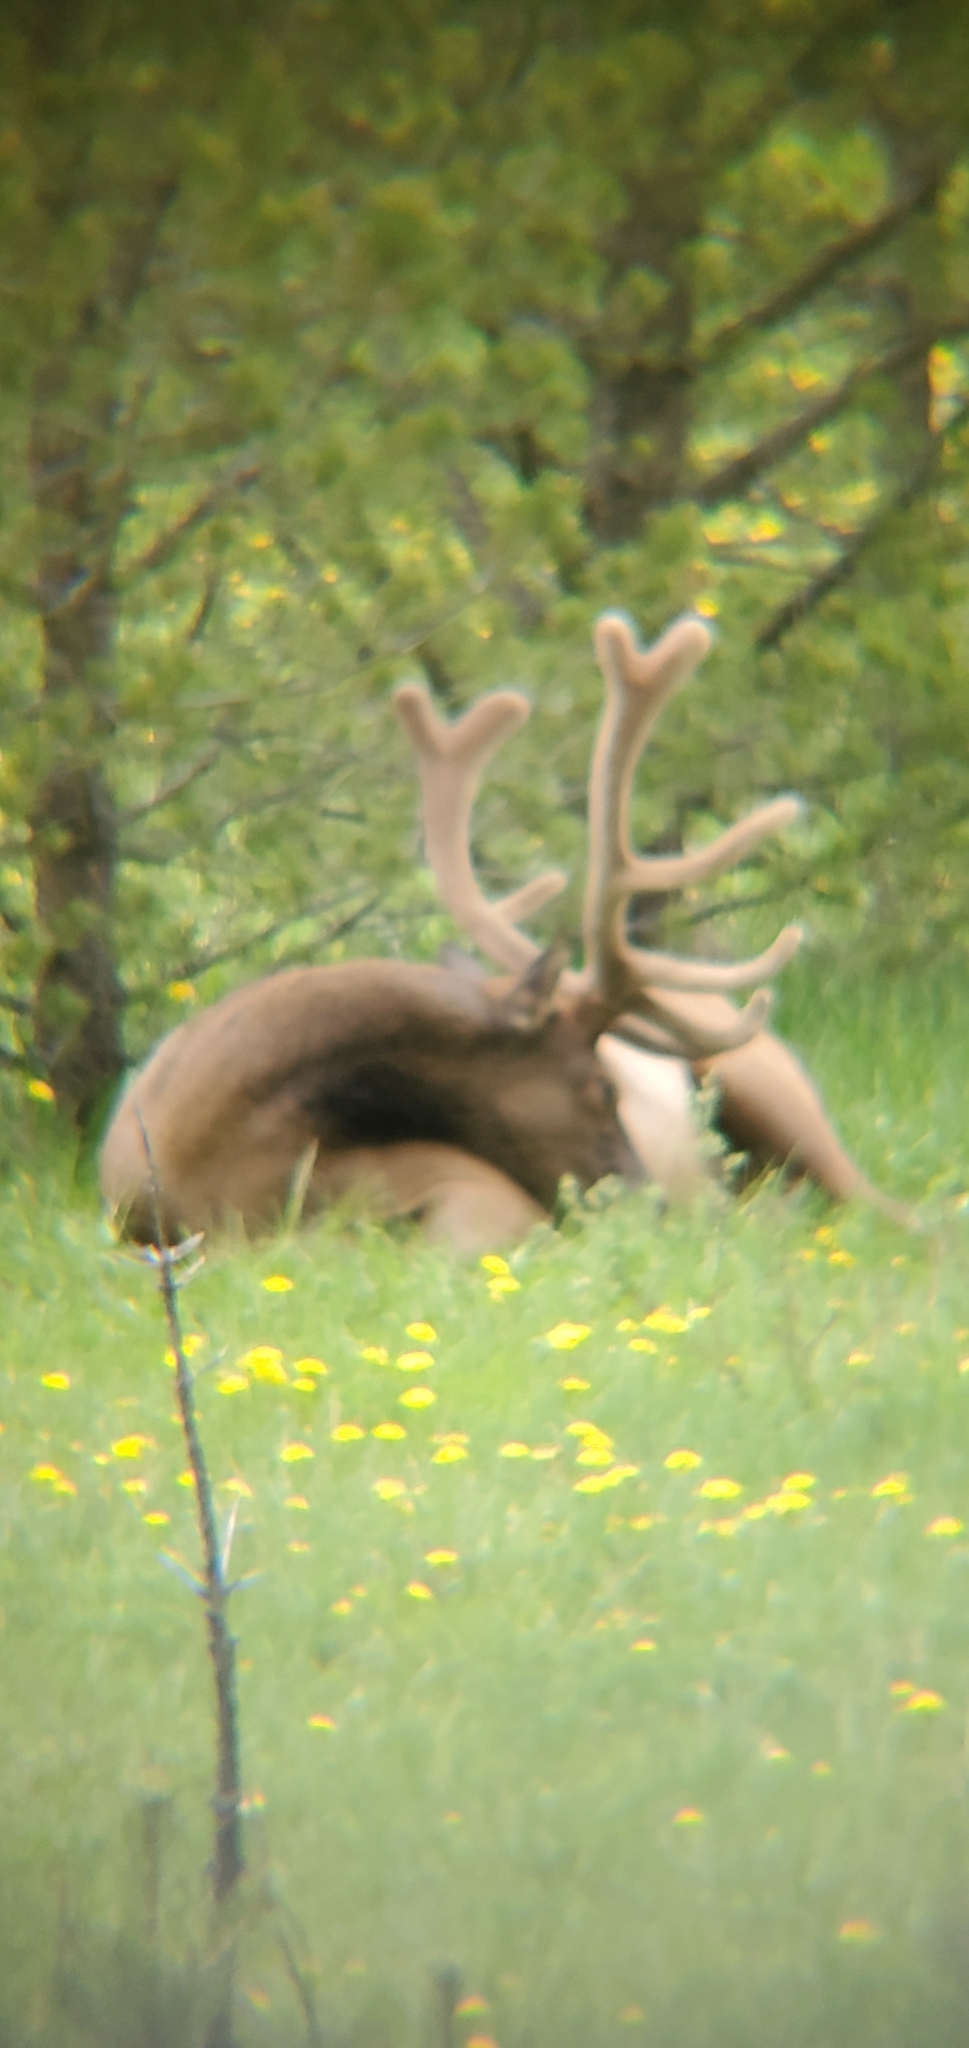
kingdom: Animalia
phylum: Chordata
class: Mammalia
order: Artiodactyla
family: Cervidae
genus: Cervus
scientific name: Cervus elaphus
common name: Red deer
